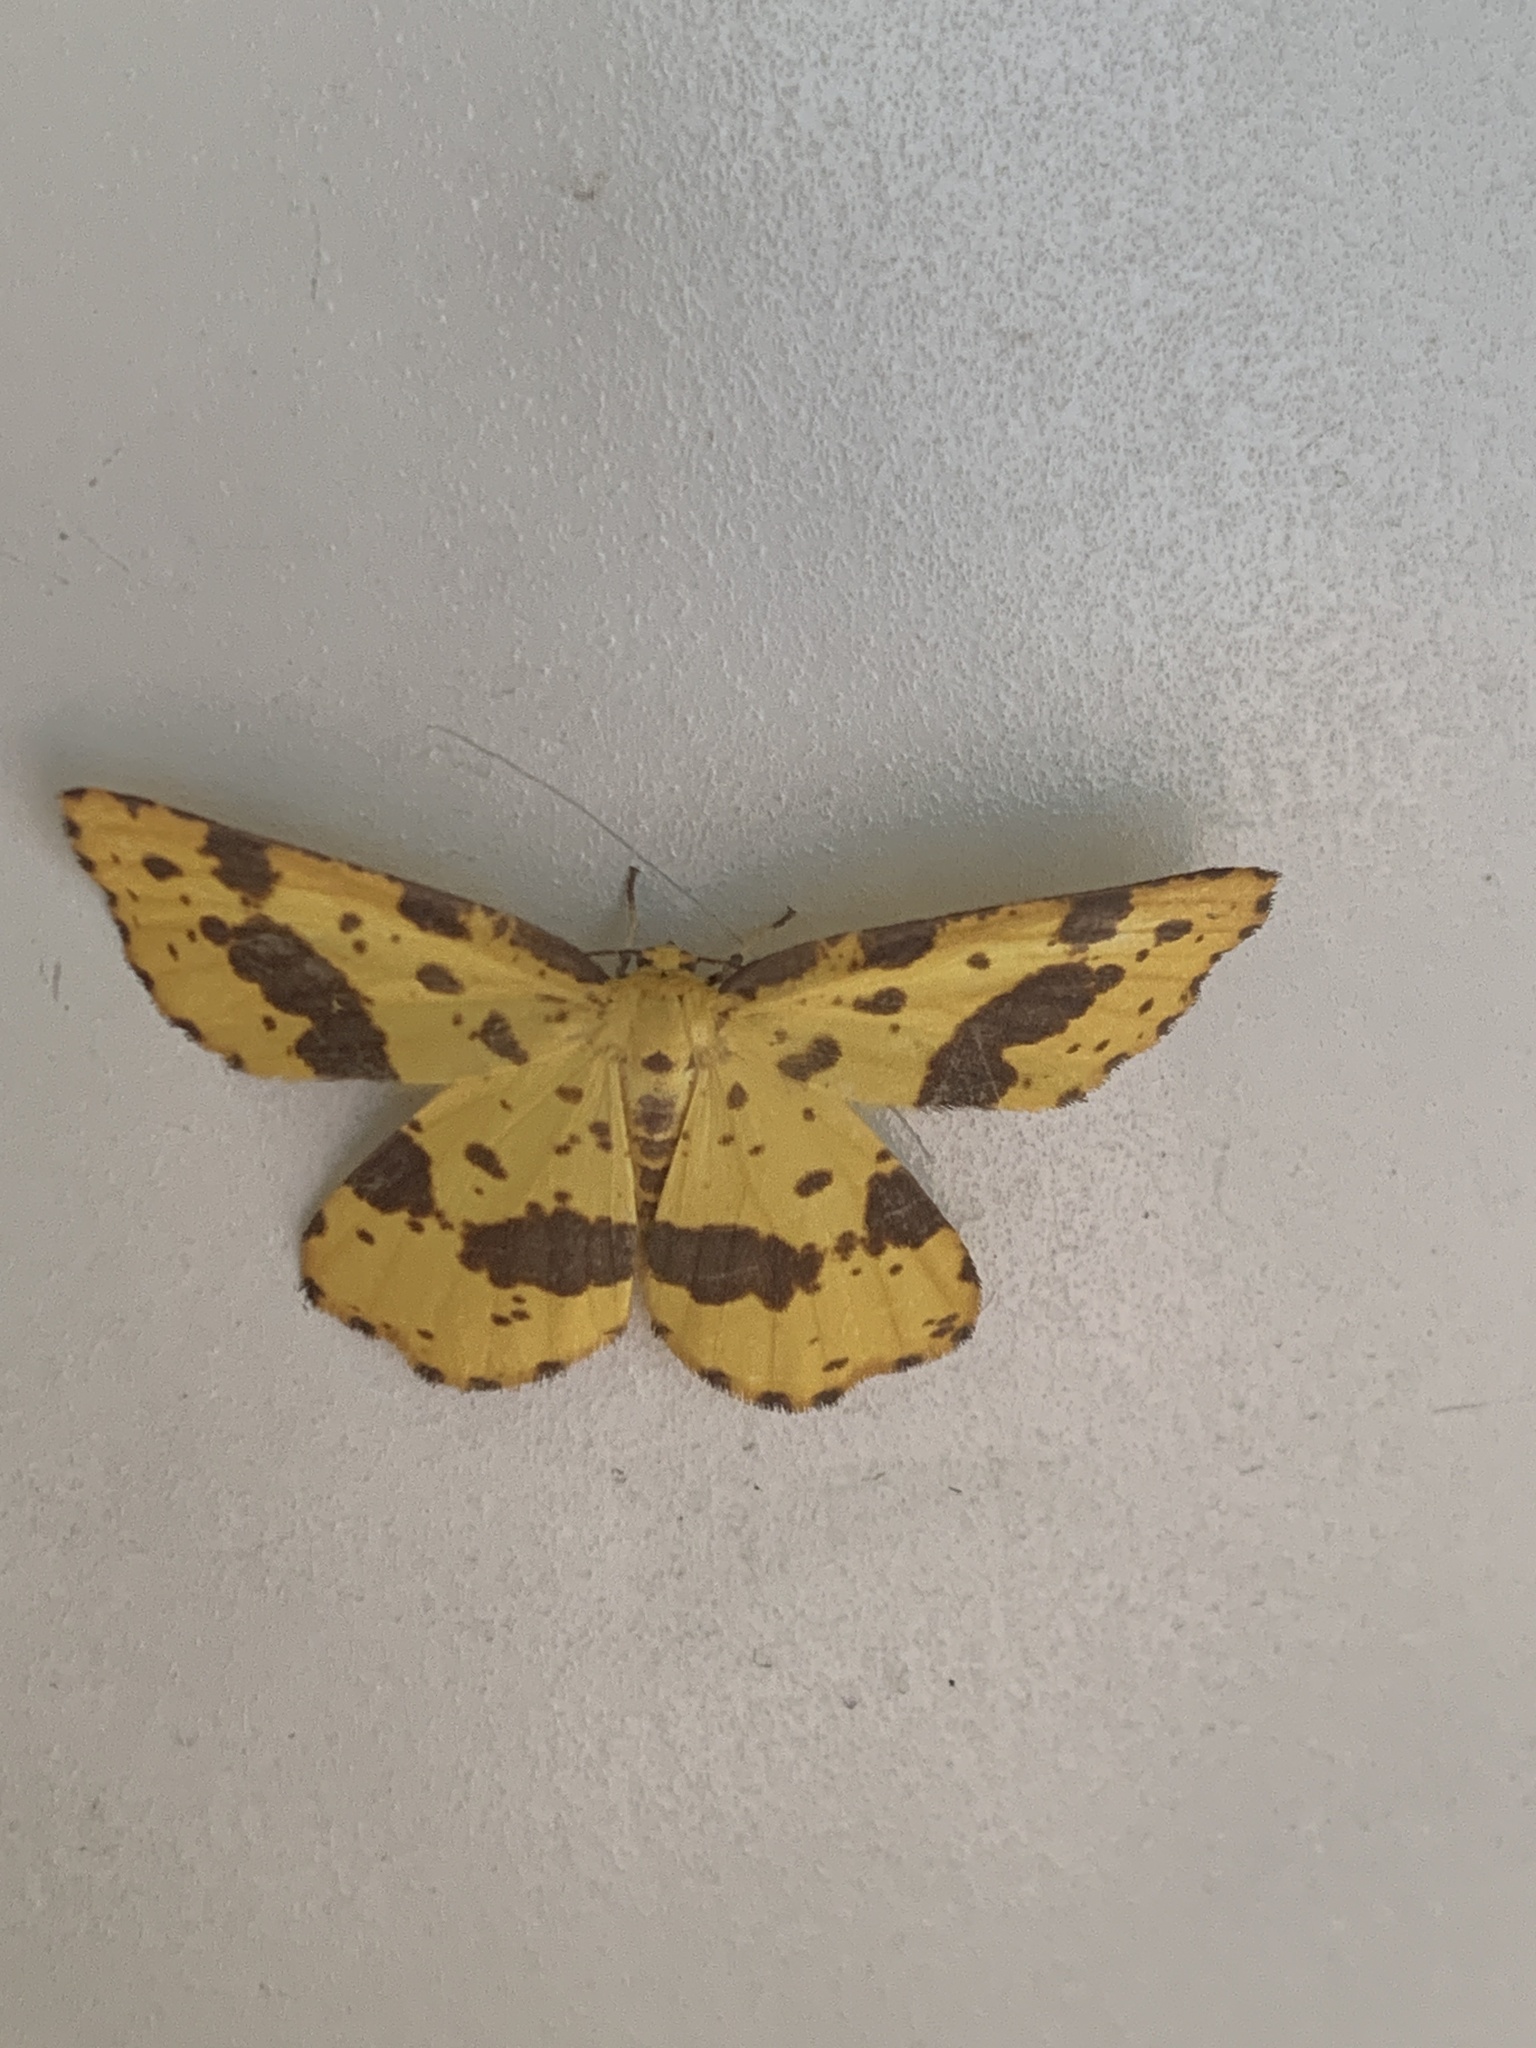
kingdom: Animalia
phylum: Arthropoda
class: Insecta
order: Lepidoptera
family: Geometridae
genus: Xanthotype
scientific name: Xanthotype
